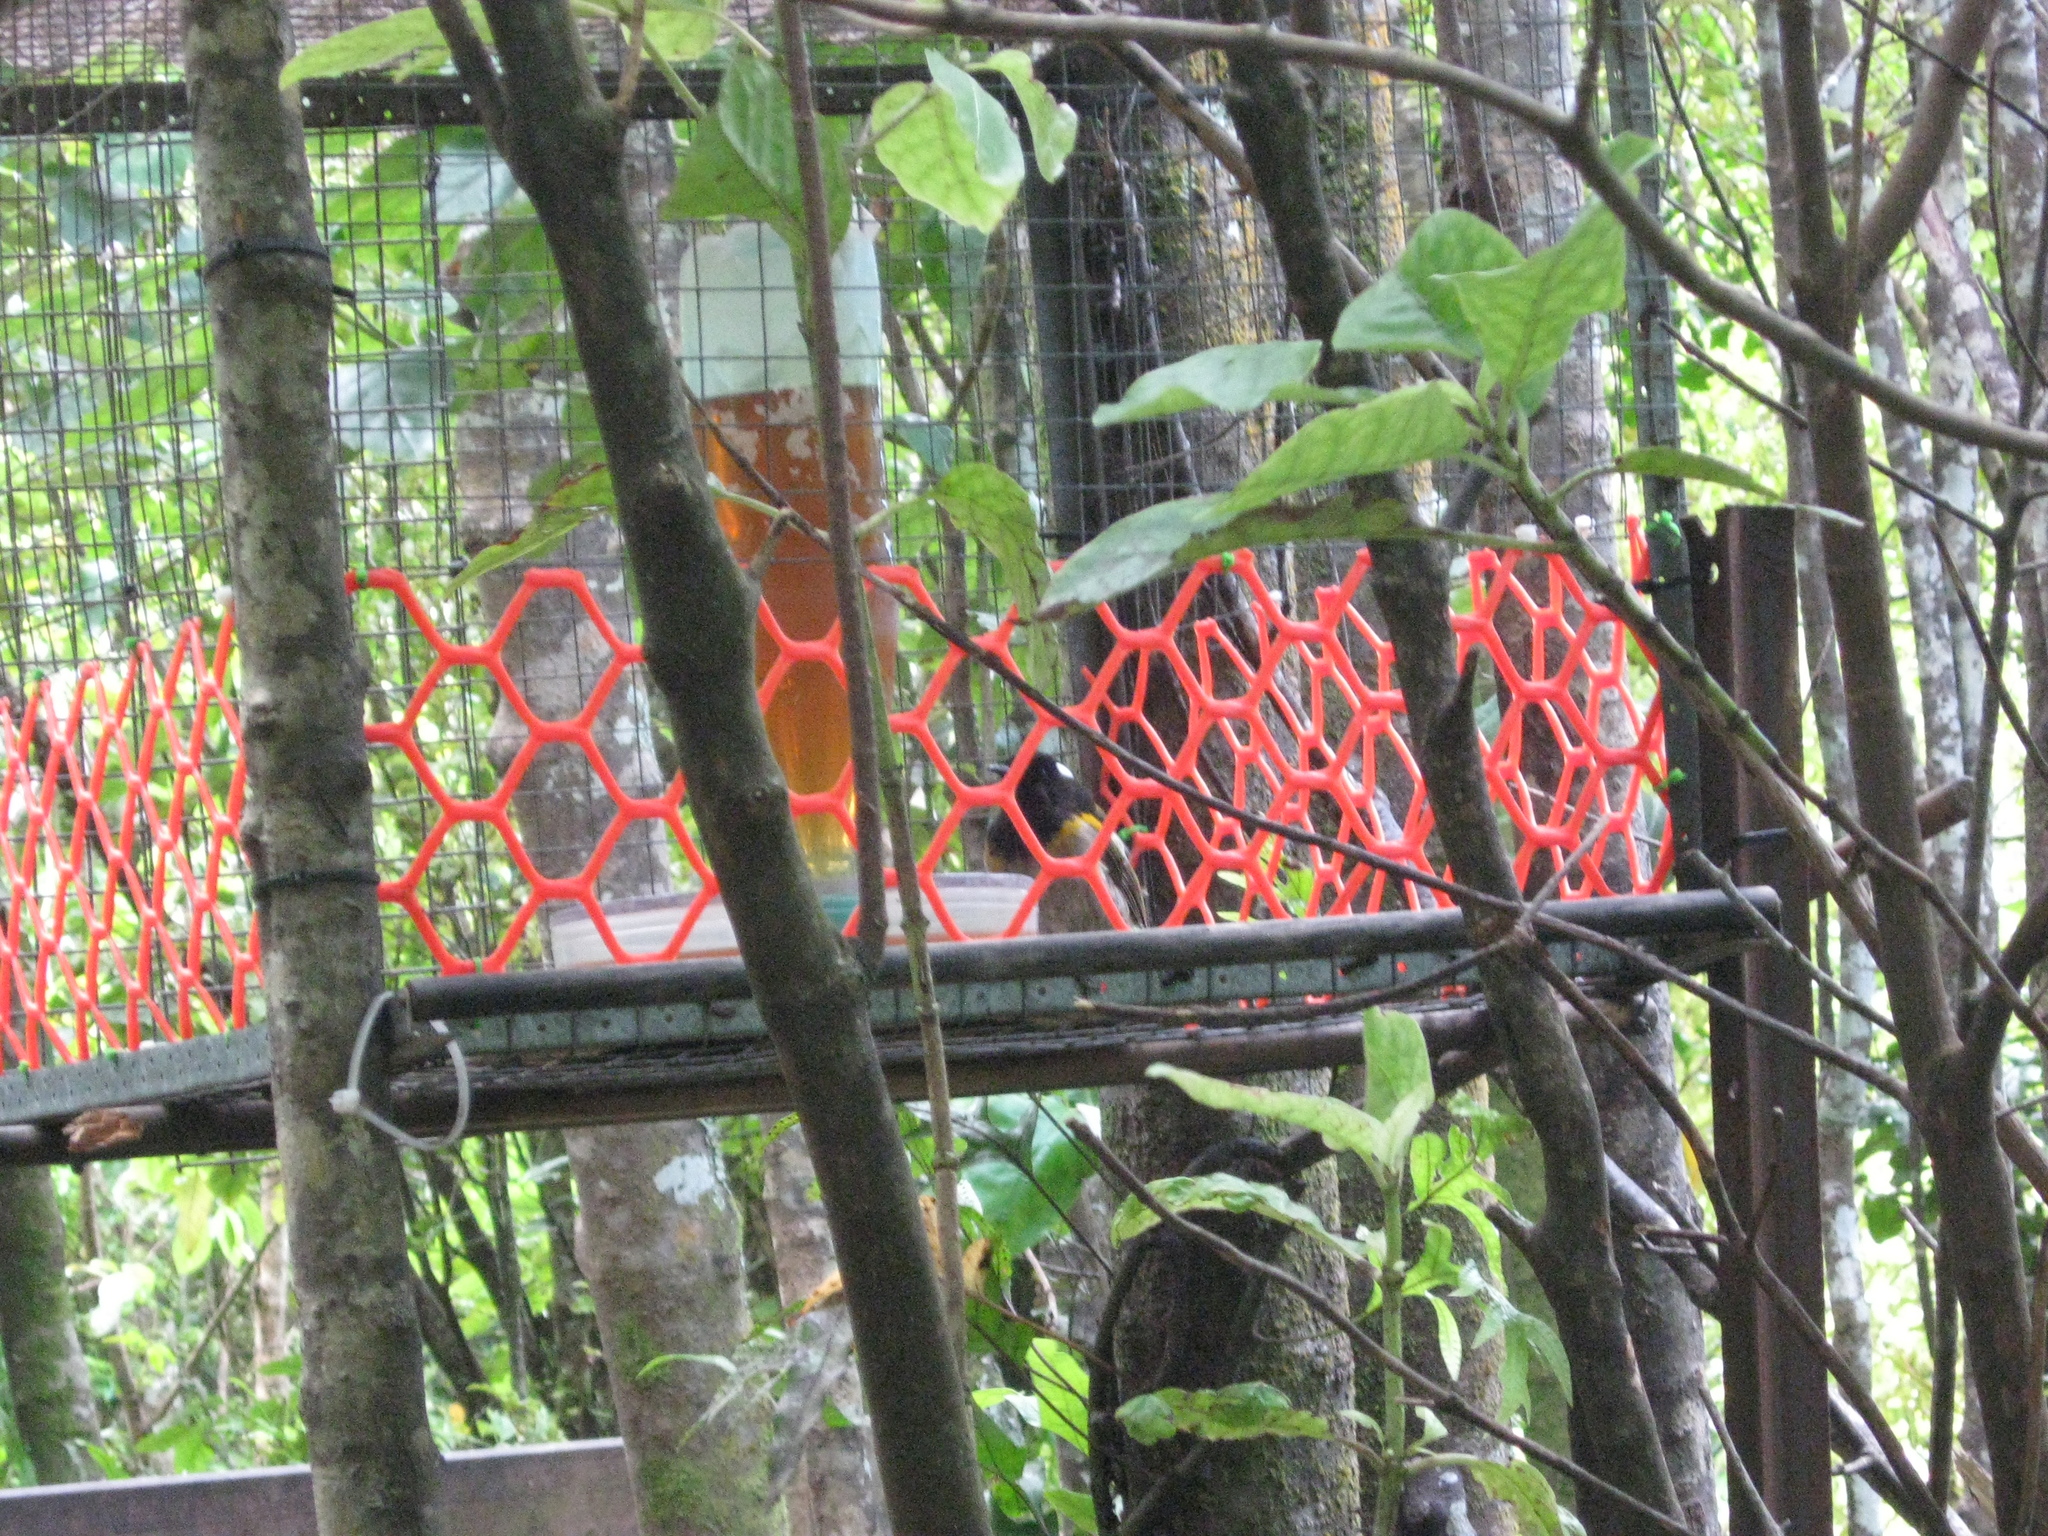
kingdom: Animalia
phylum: Chordata
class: Aves
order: Passeriformes
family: Notiomystidae
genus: Notiomystis
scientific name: Notiomystis cincta
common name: Stitchbird
